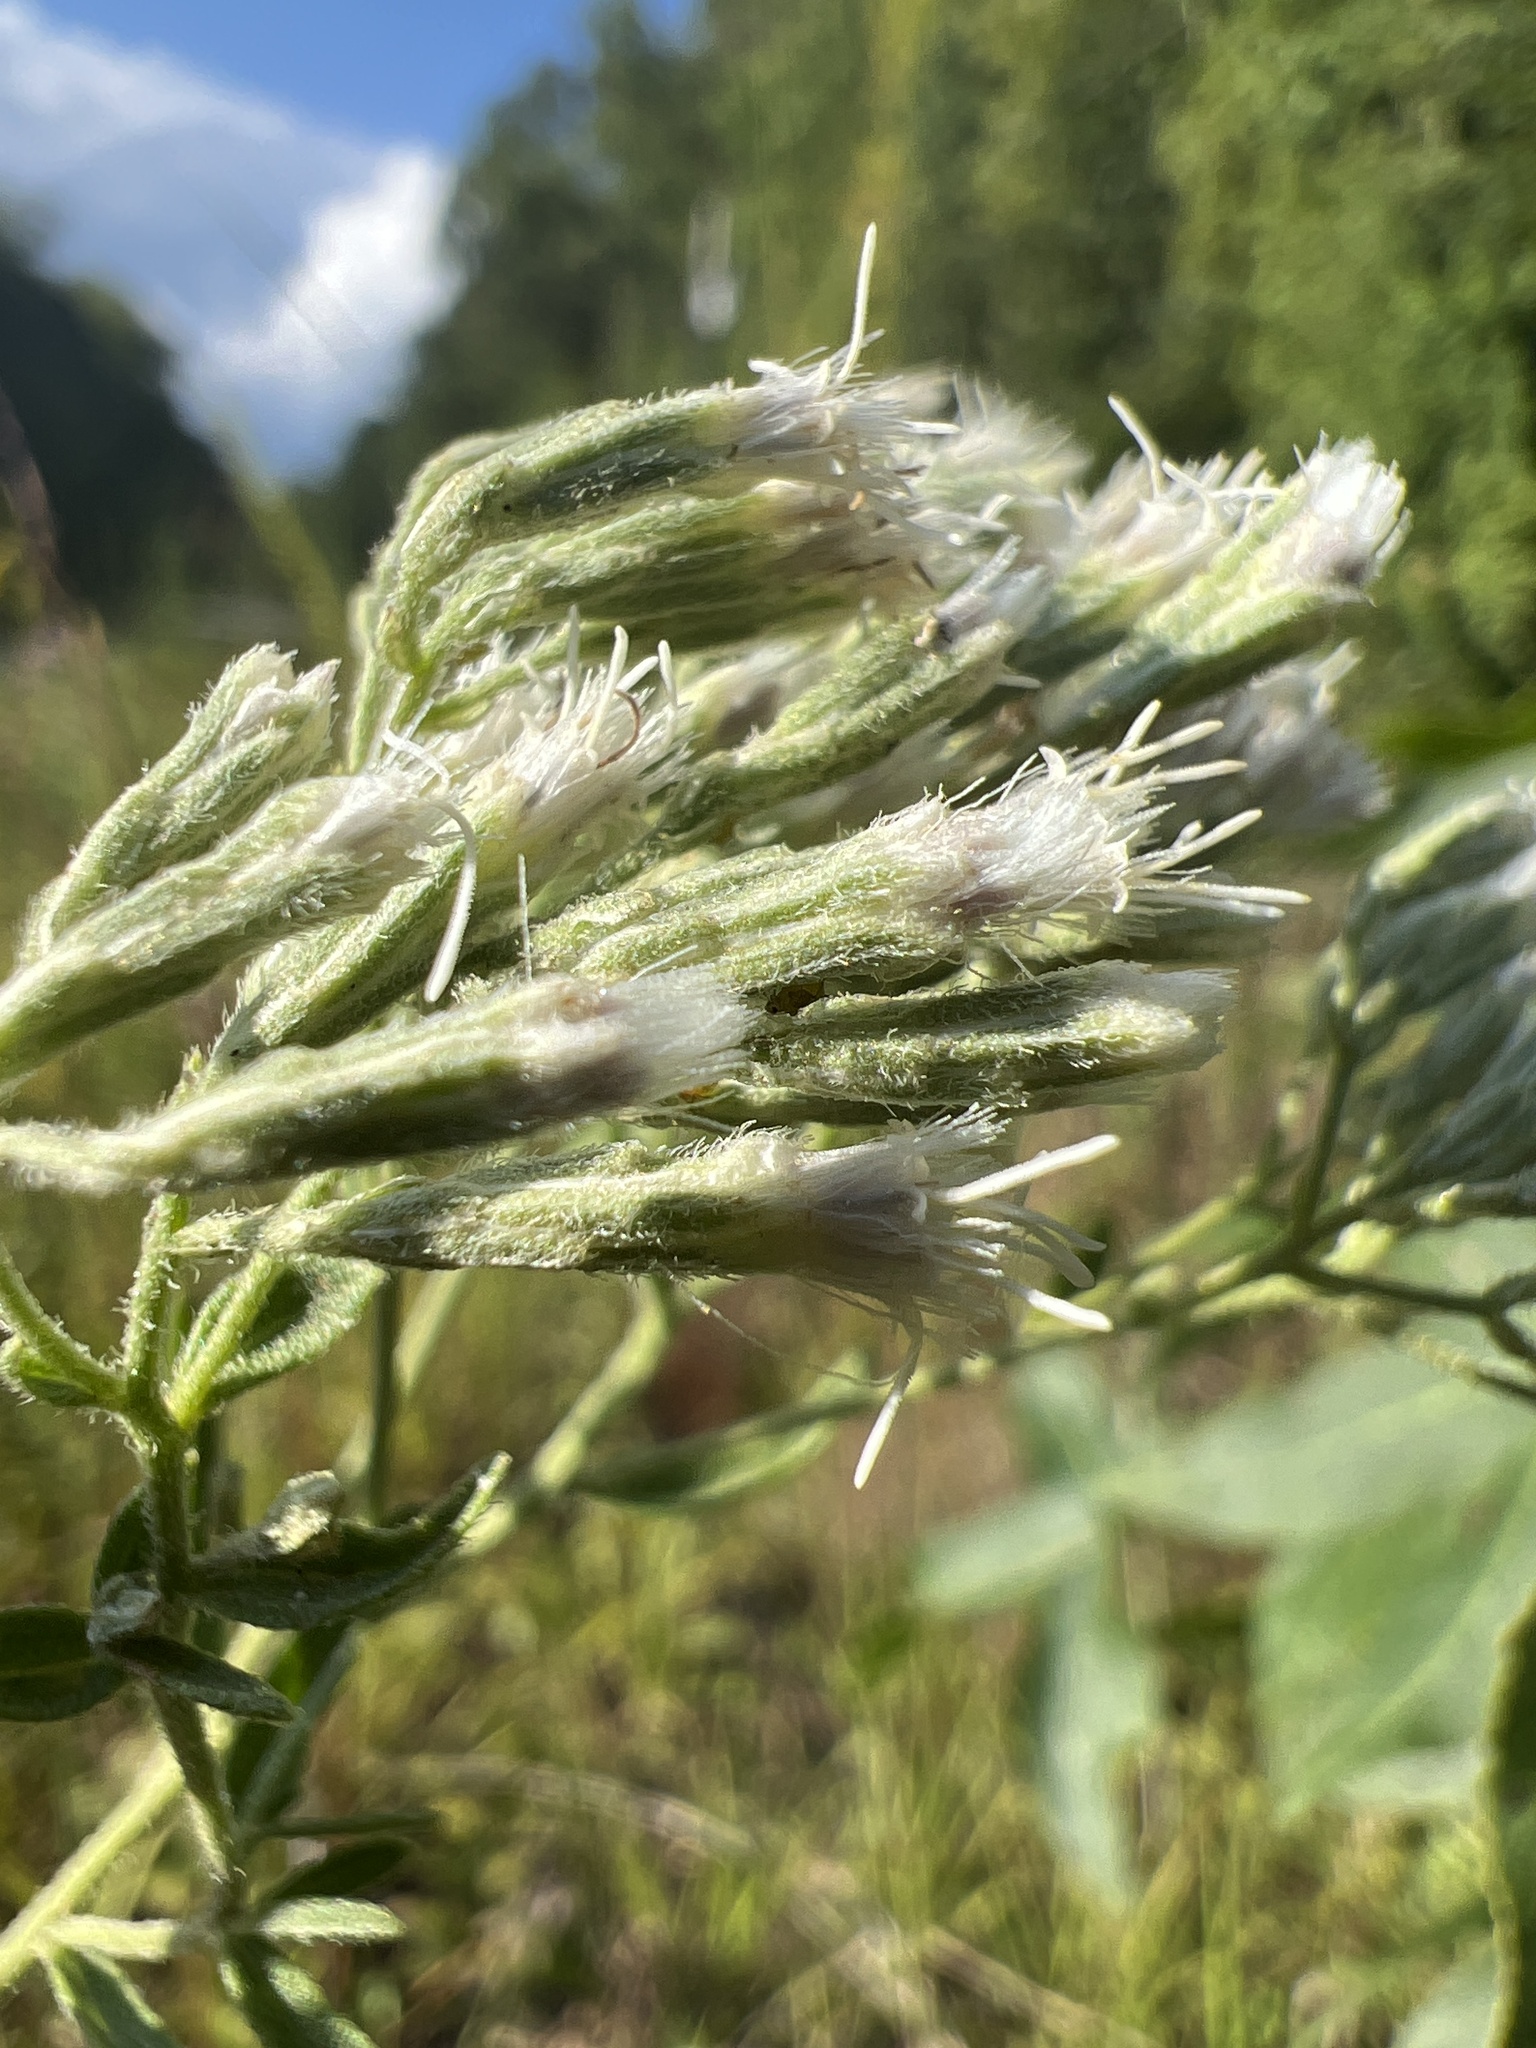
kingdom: Plantae
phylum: Tracheophyta
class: Magnoliopsida
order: Asterales
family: Asteraceae
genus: Eupatorium
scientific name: Eupatorium torreyanum
